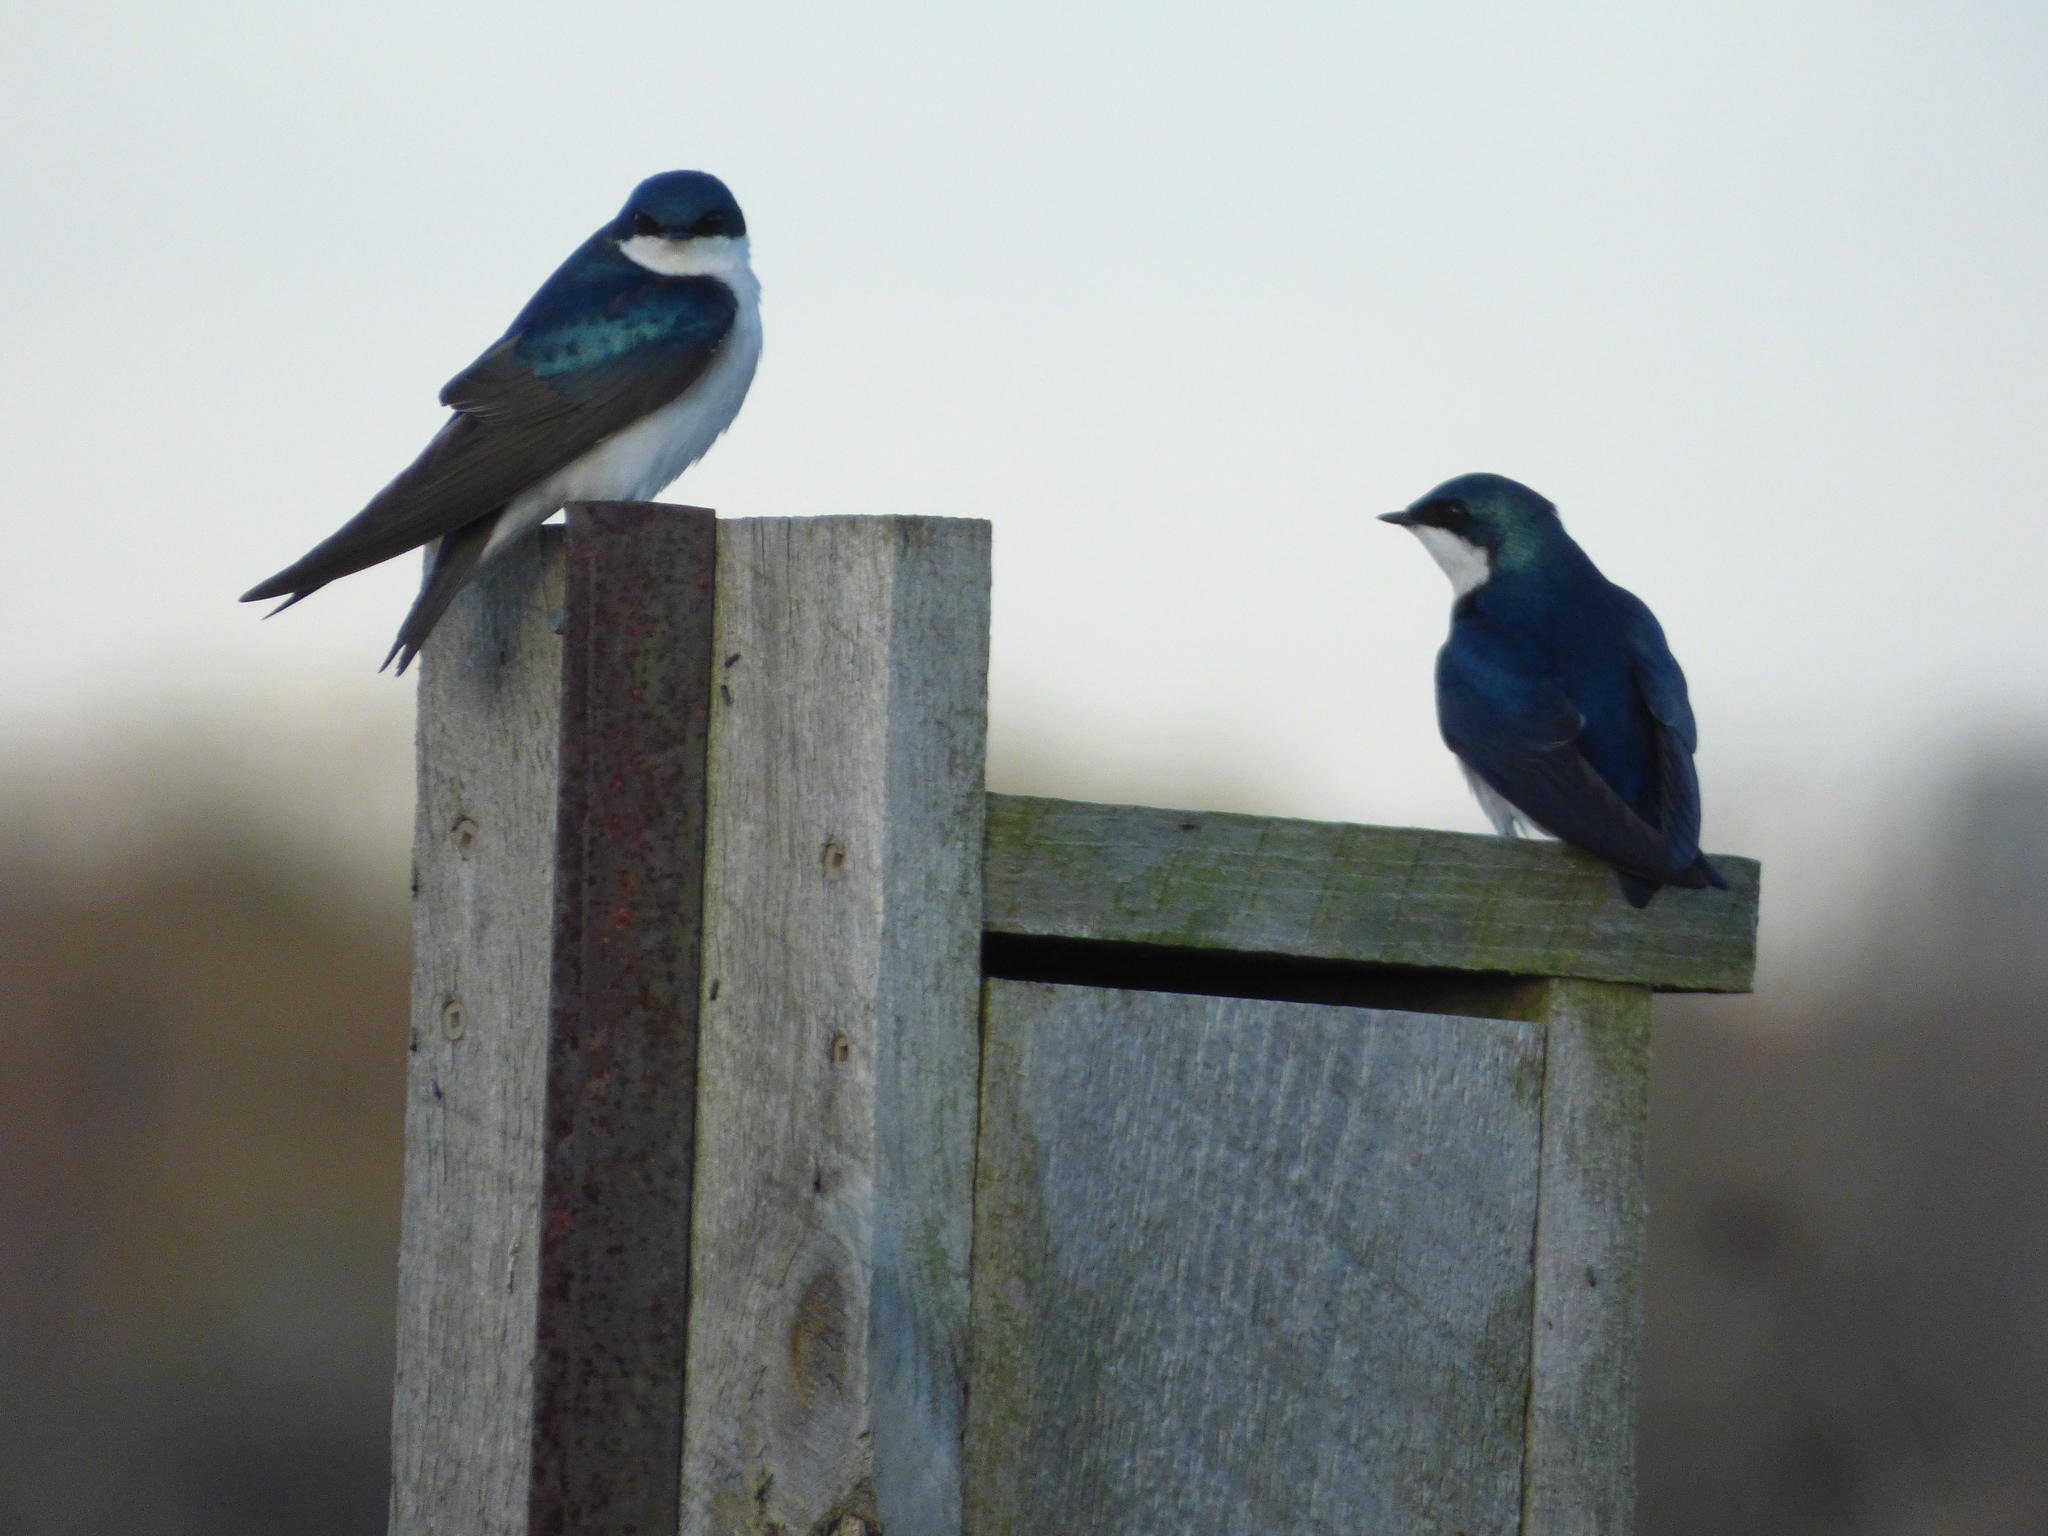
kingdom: Animalia
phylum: Chordata
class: Aves
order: Passeriformes
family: Hirundinidae
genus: Tachycineta
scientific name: Tachycineta bicolor
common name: Tree swallow
